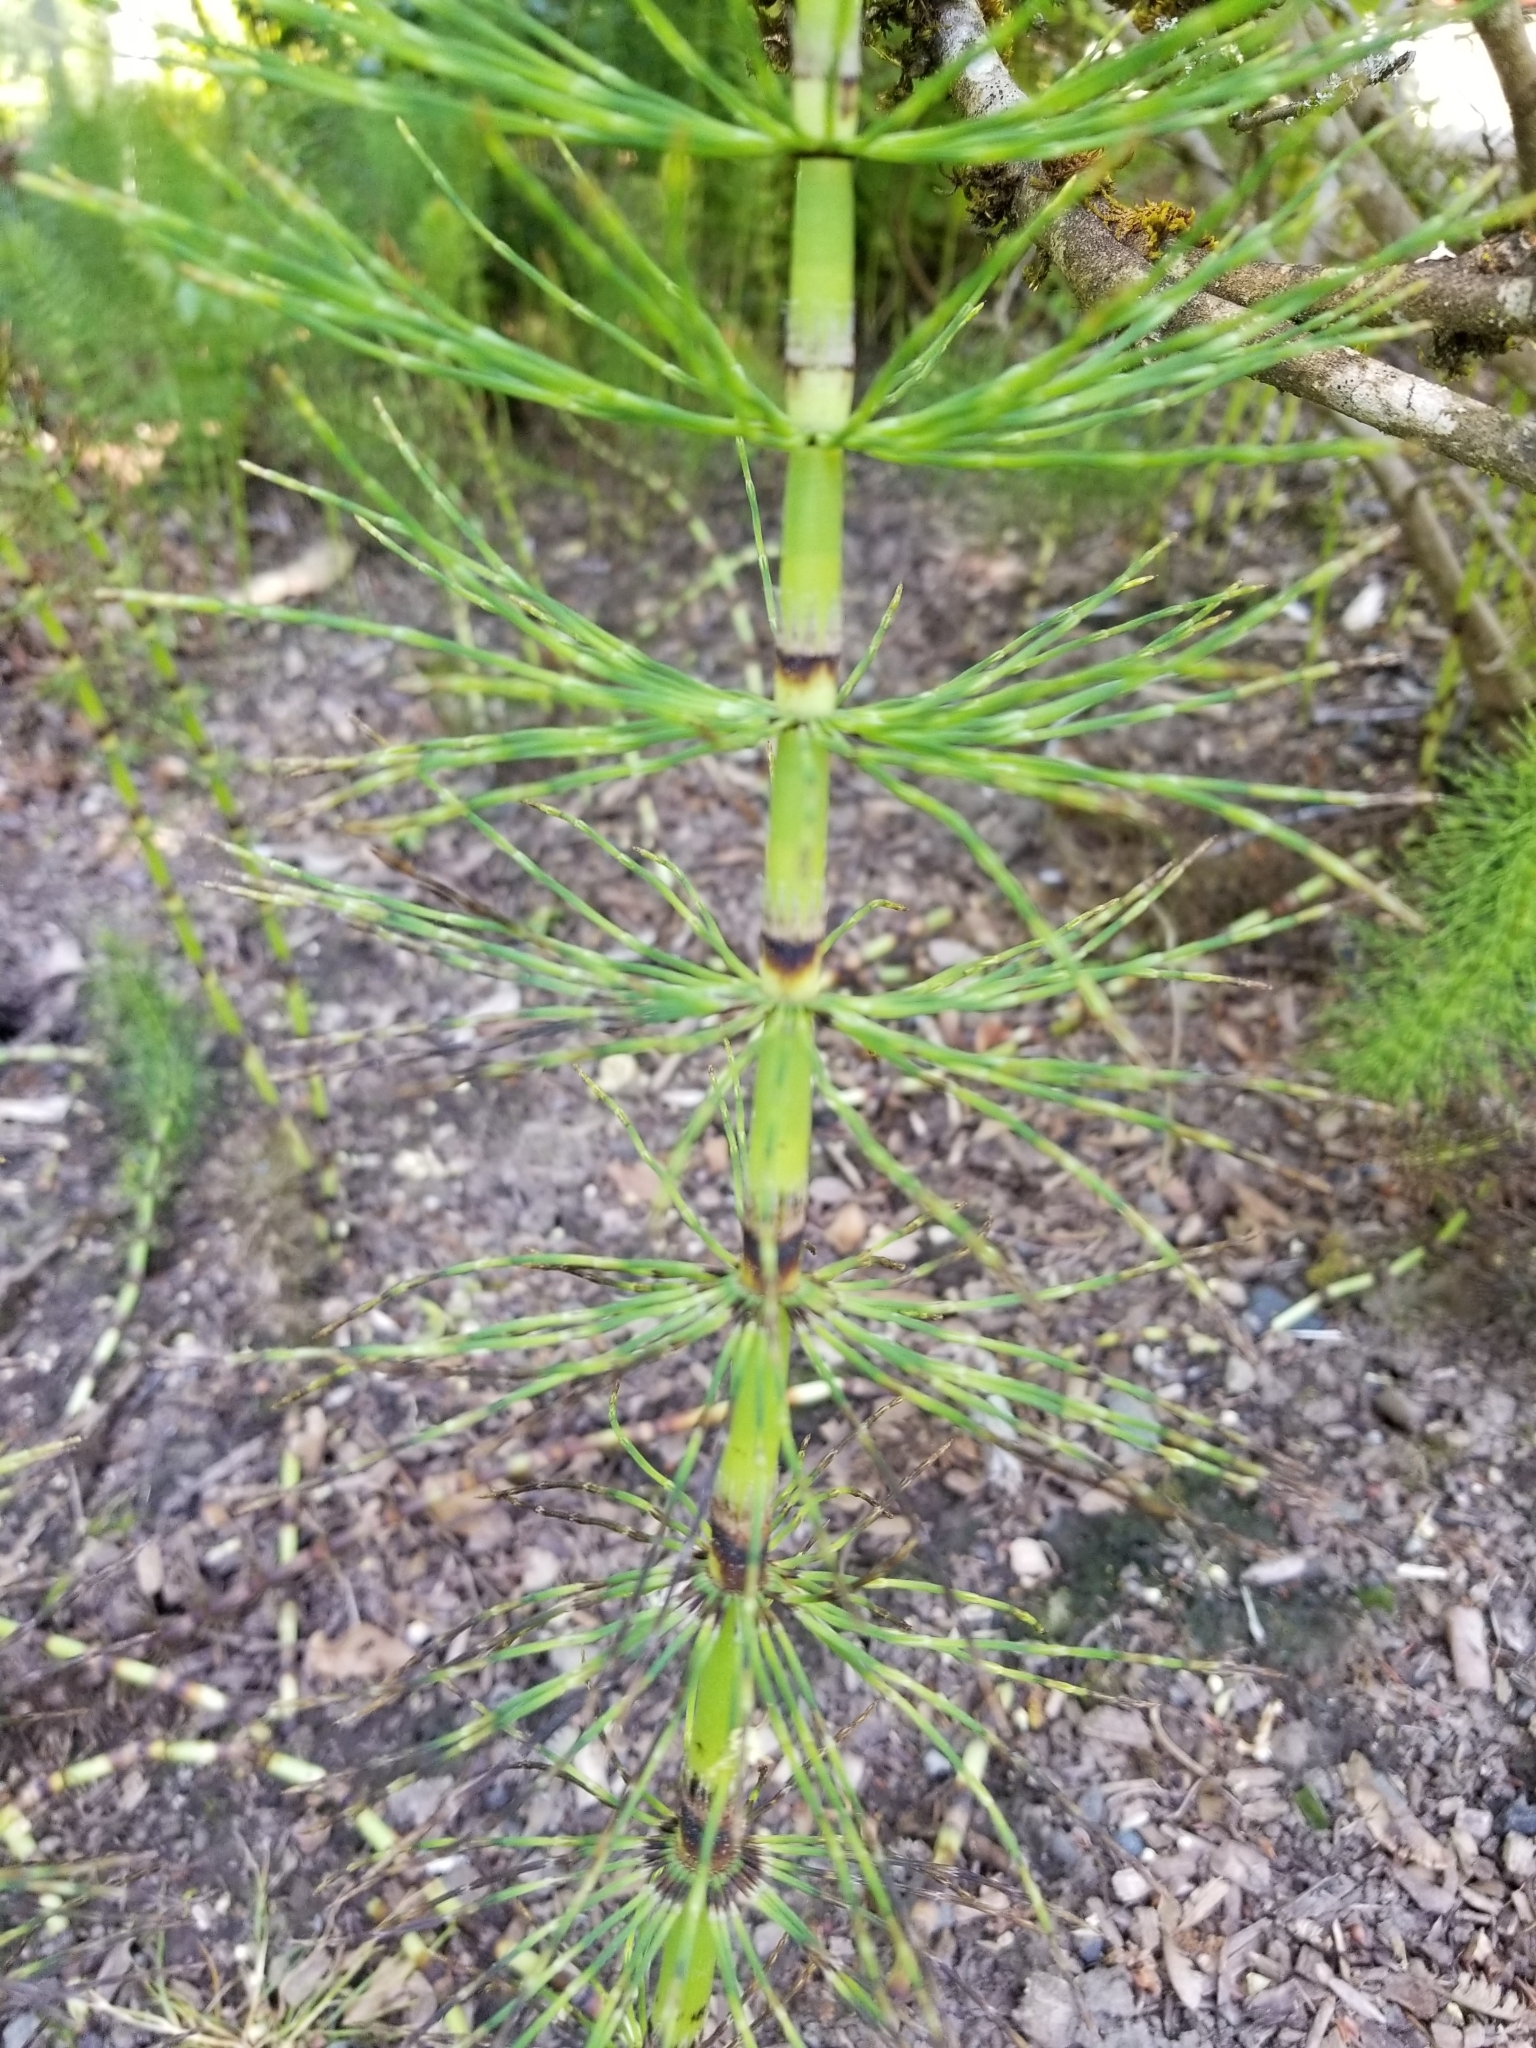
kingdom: Plantae
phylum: Tracheophyta
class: Polypodiopsida
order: Equisetales
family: Equisetaceae
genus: Equisetum
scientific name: Equisetum braunii
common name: Braun's horsetail
